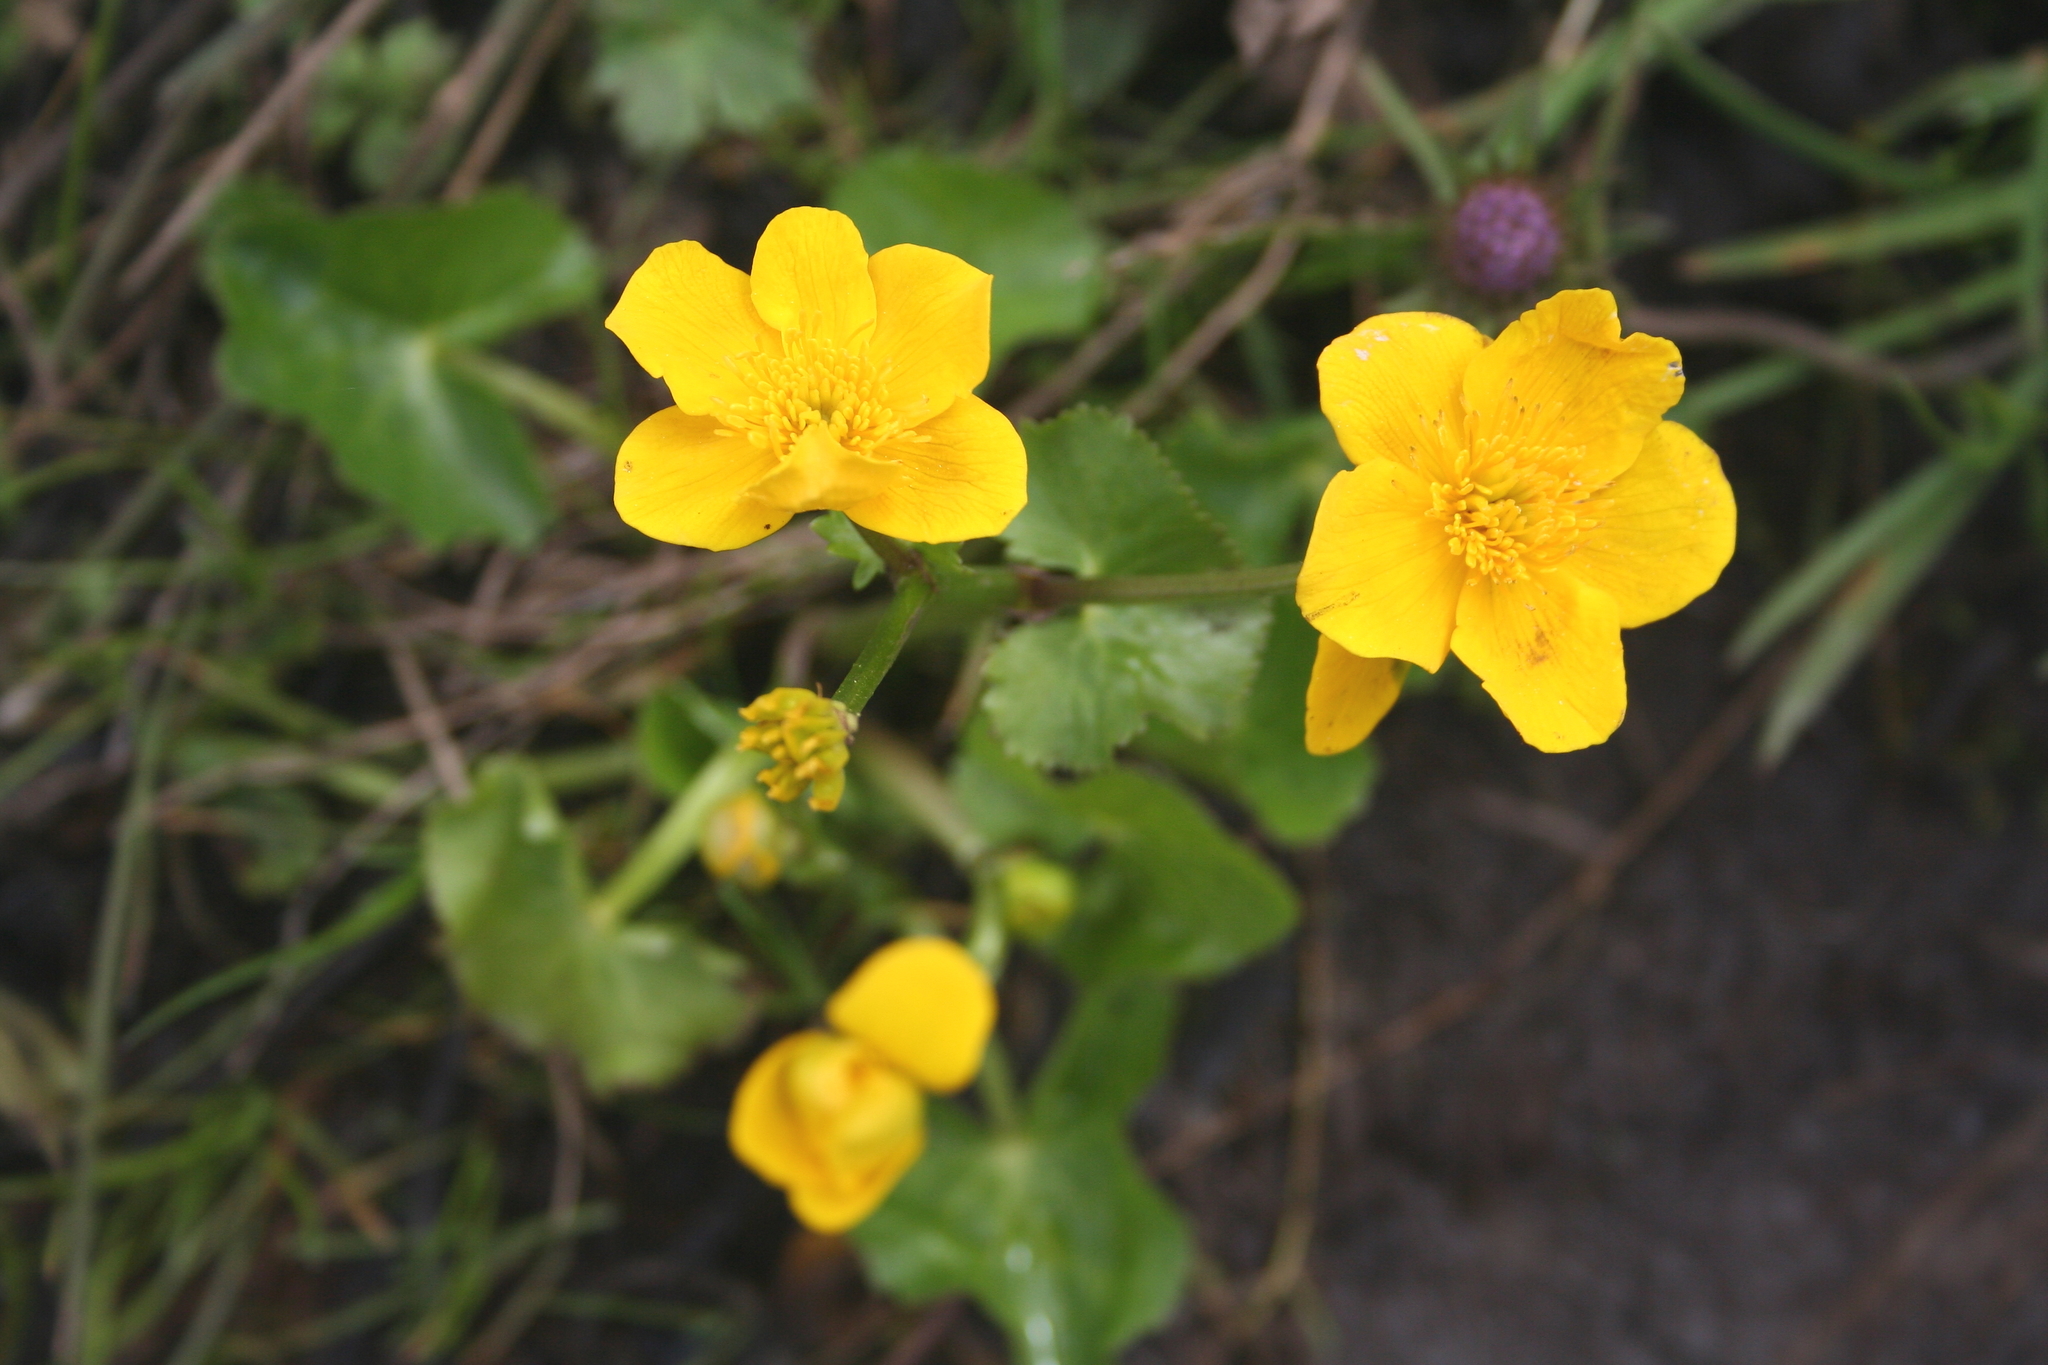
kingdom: Plantae
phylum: Tracheophyta
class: Magnoliopsida
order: Ranunculales
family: Ranunculaceae
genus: Caltha
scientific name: Caltha palustris
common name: Marsh marigold
